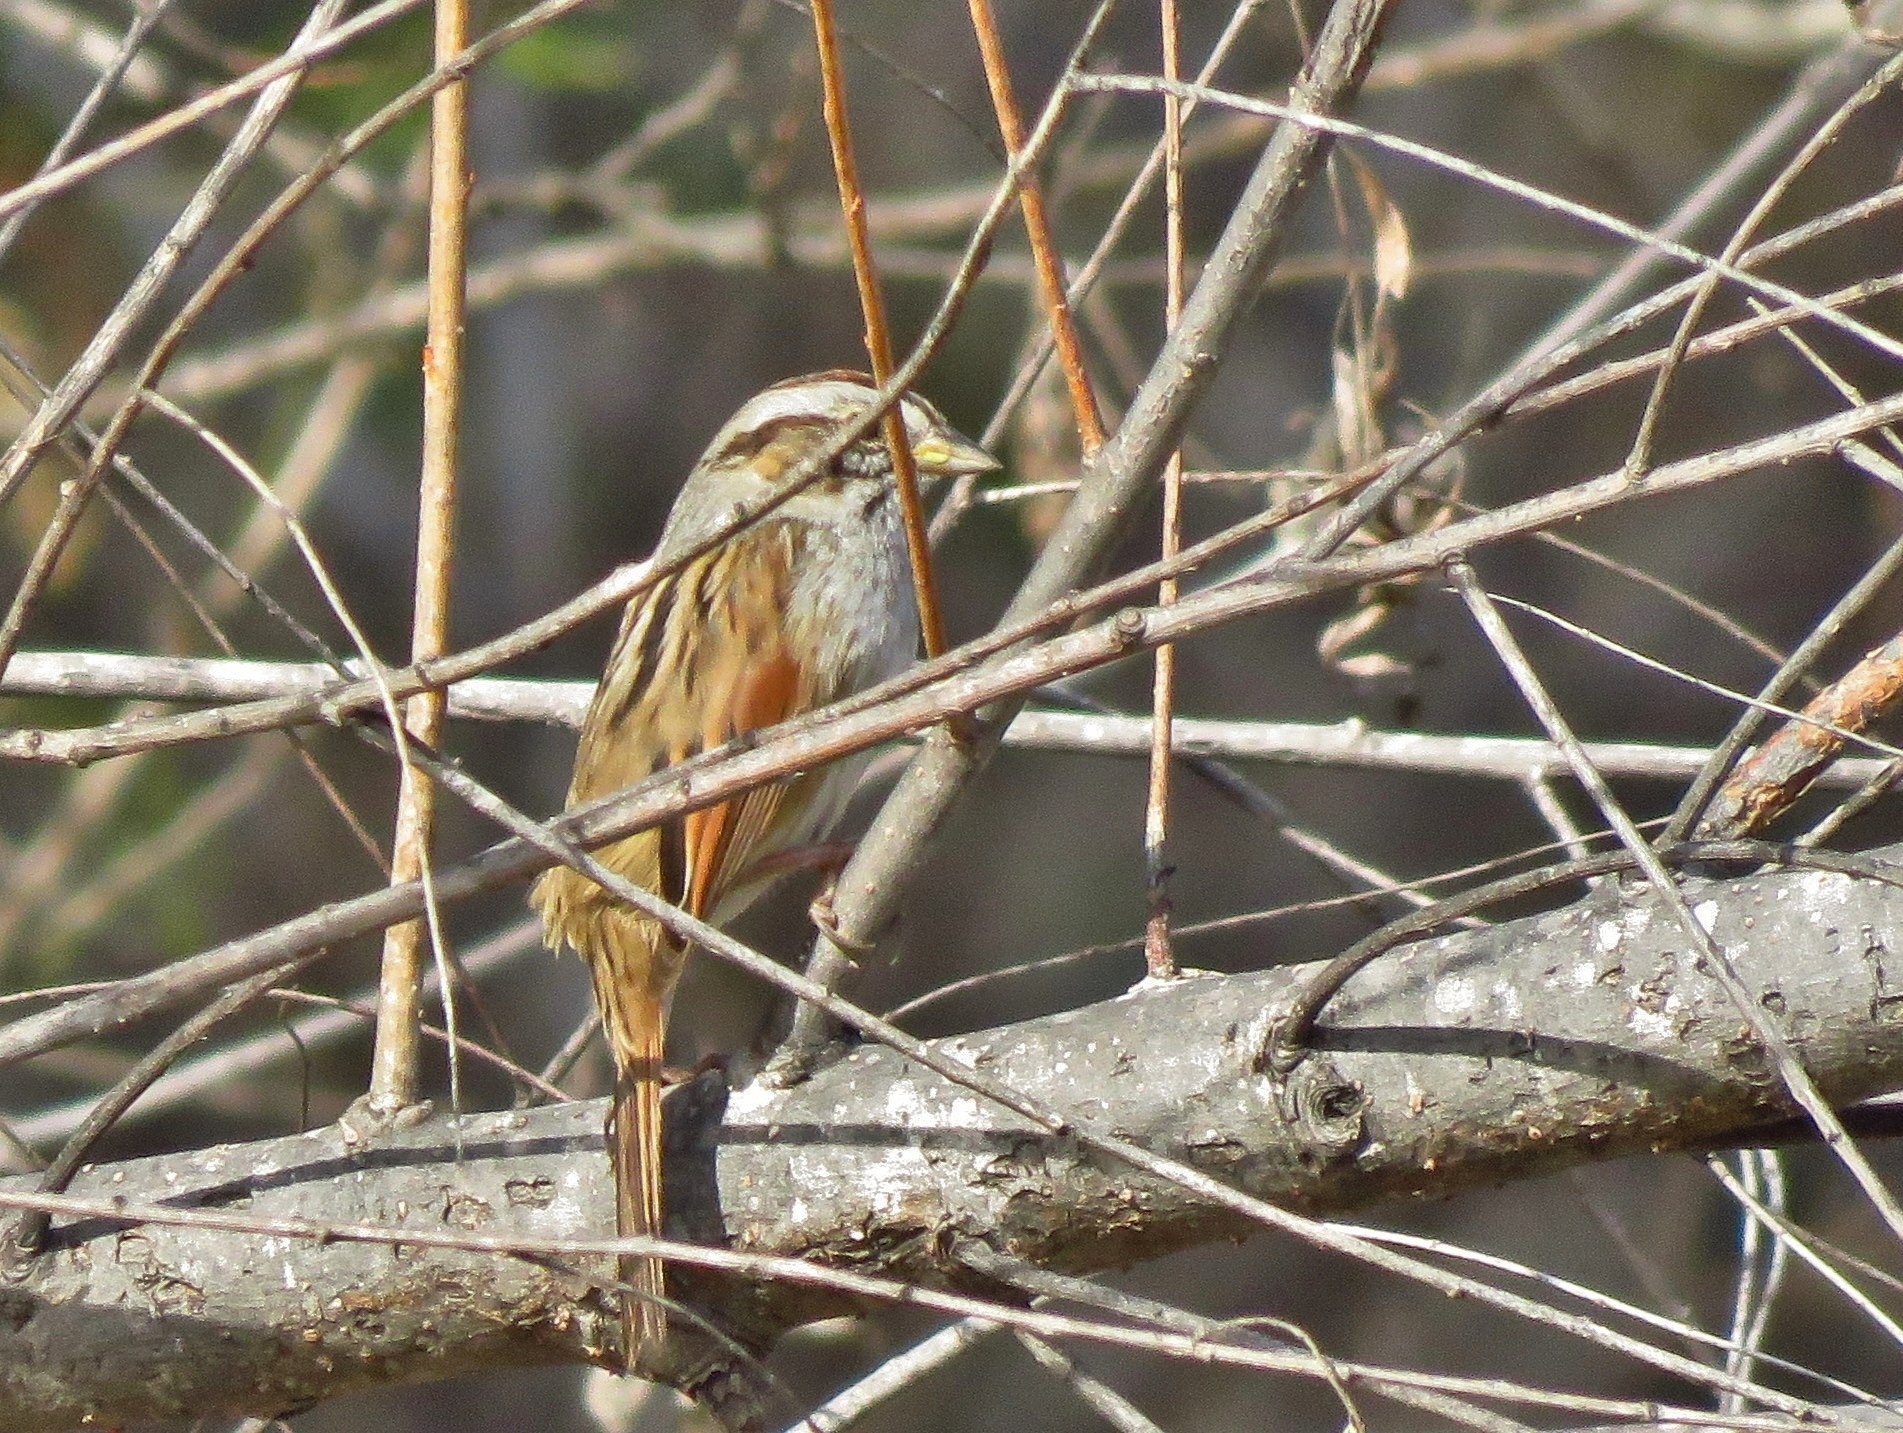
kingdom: Animalia
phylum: Chordata
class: Aves
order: Passeriformes
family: Passerellidae
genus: Melospiza
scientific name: Melospiza georgiana
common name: Swamp sparrow
